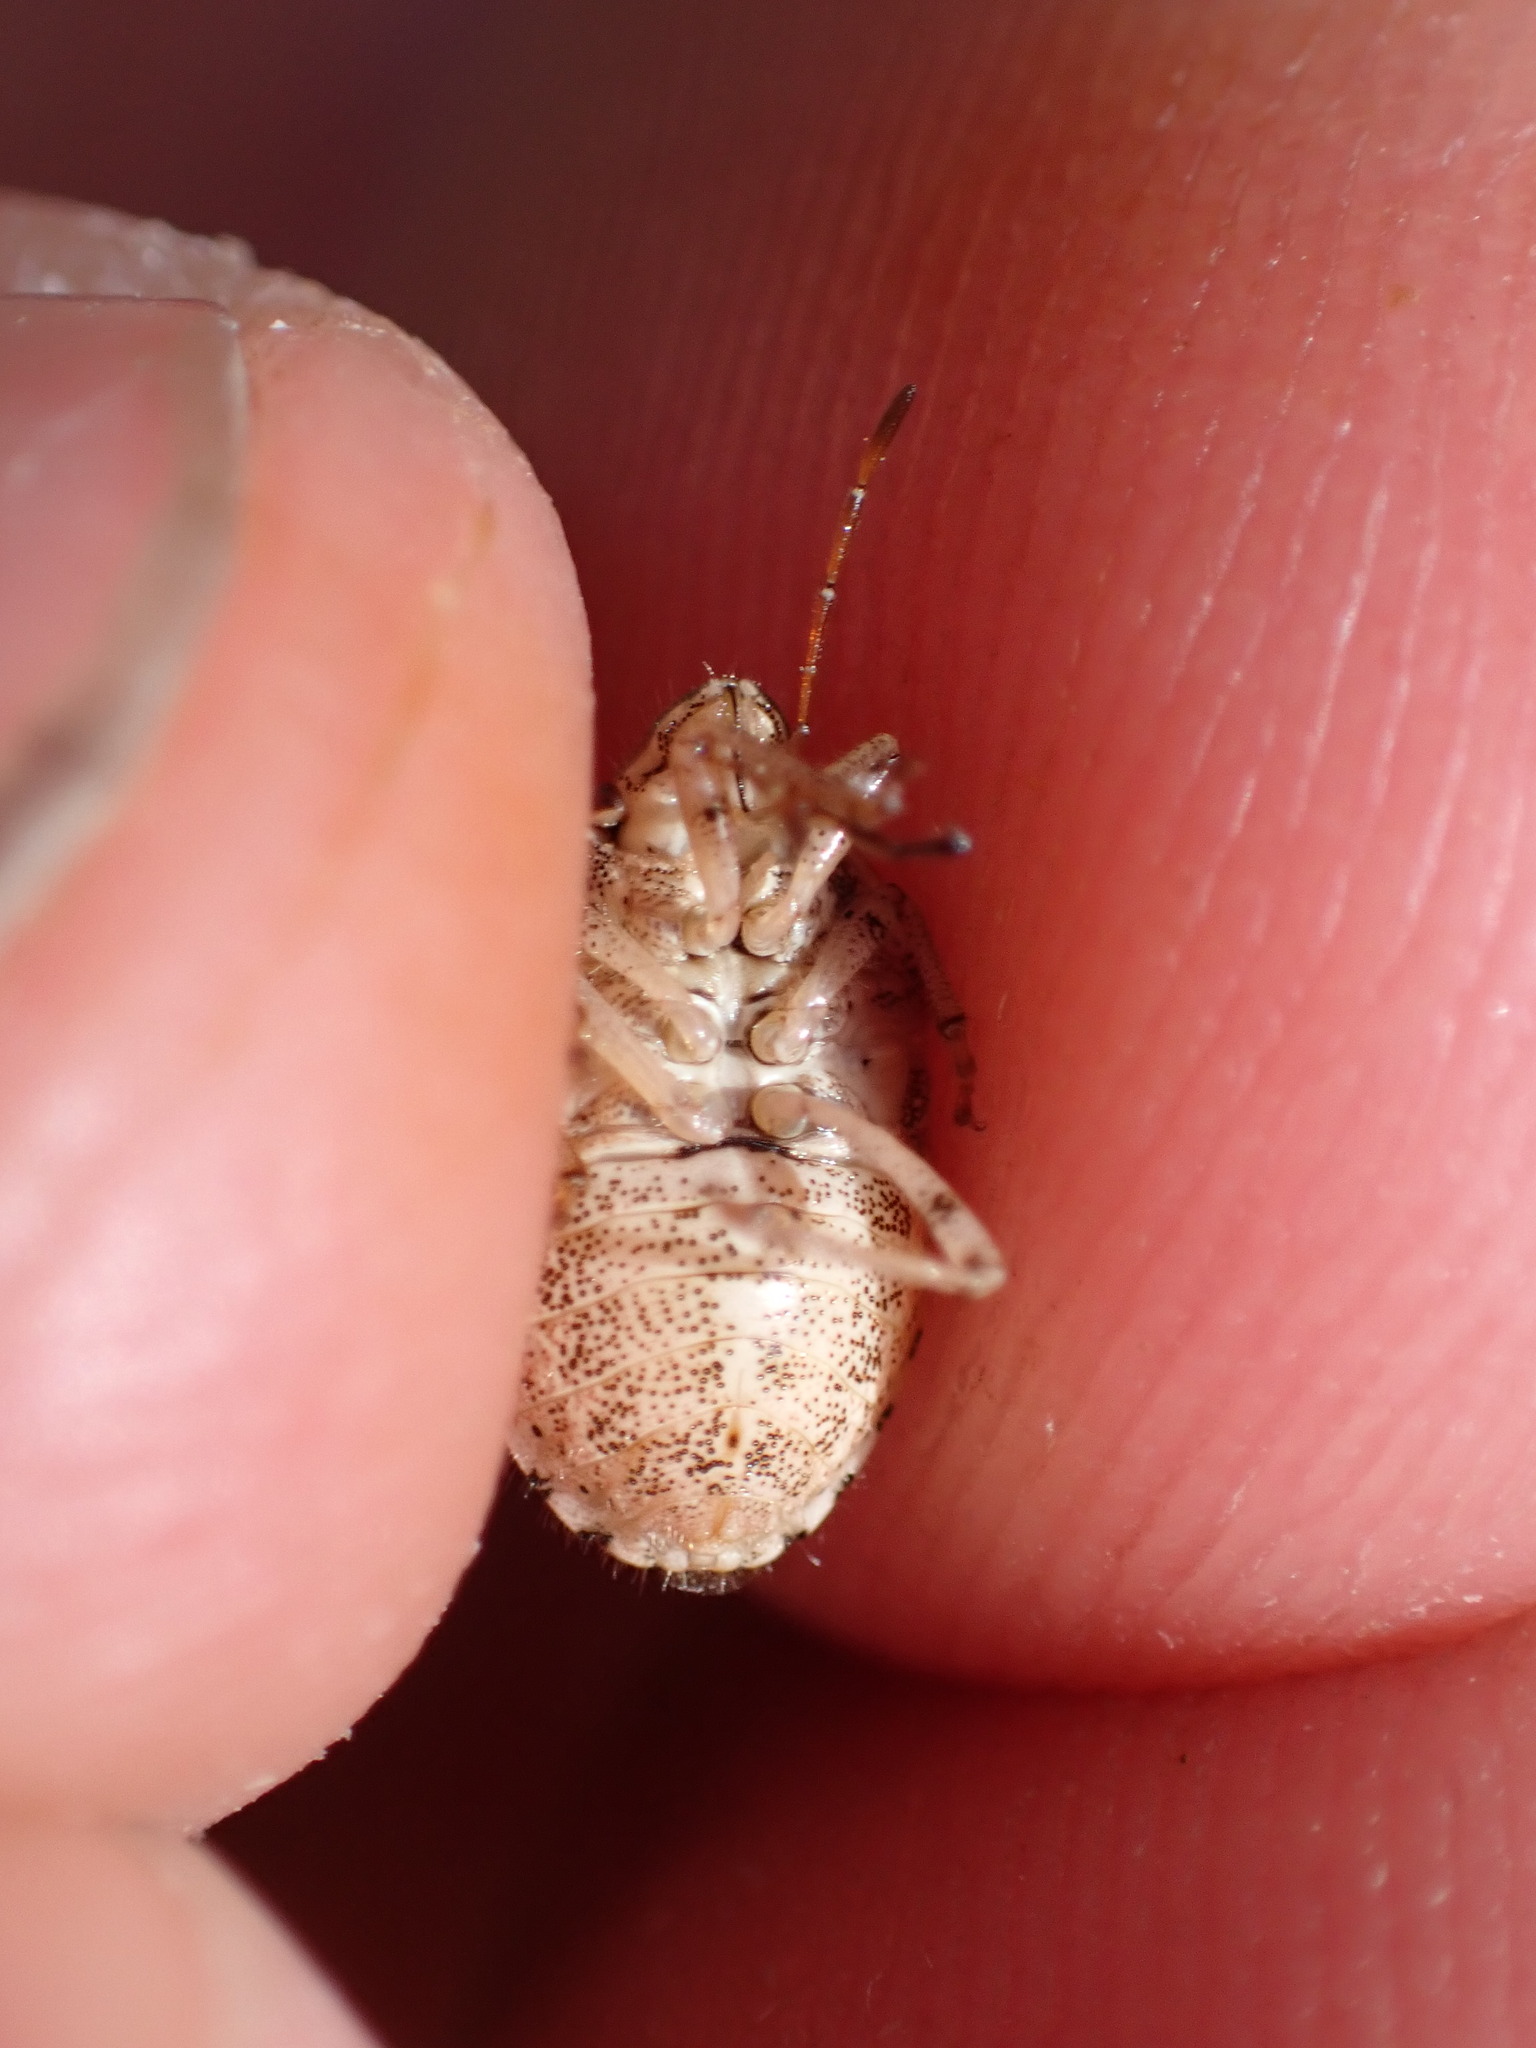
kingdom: Animalia
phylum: Arthropoda
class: Insecta
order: Hemiptera
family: Pentatomidae
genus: Staria
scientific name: Staria lunata
